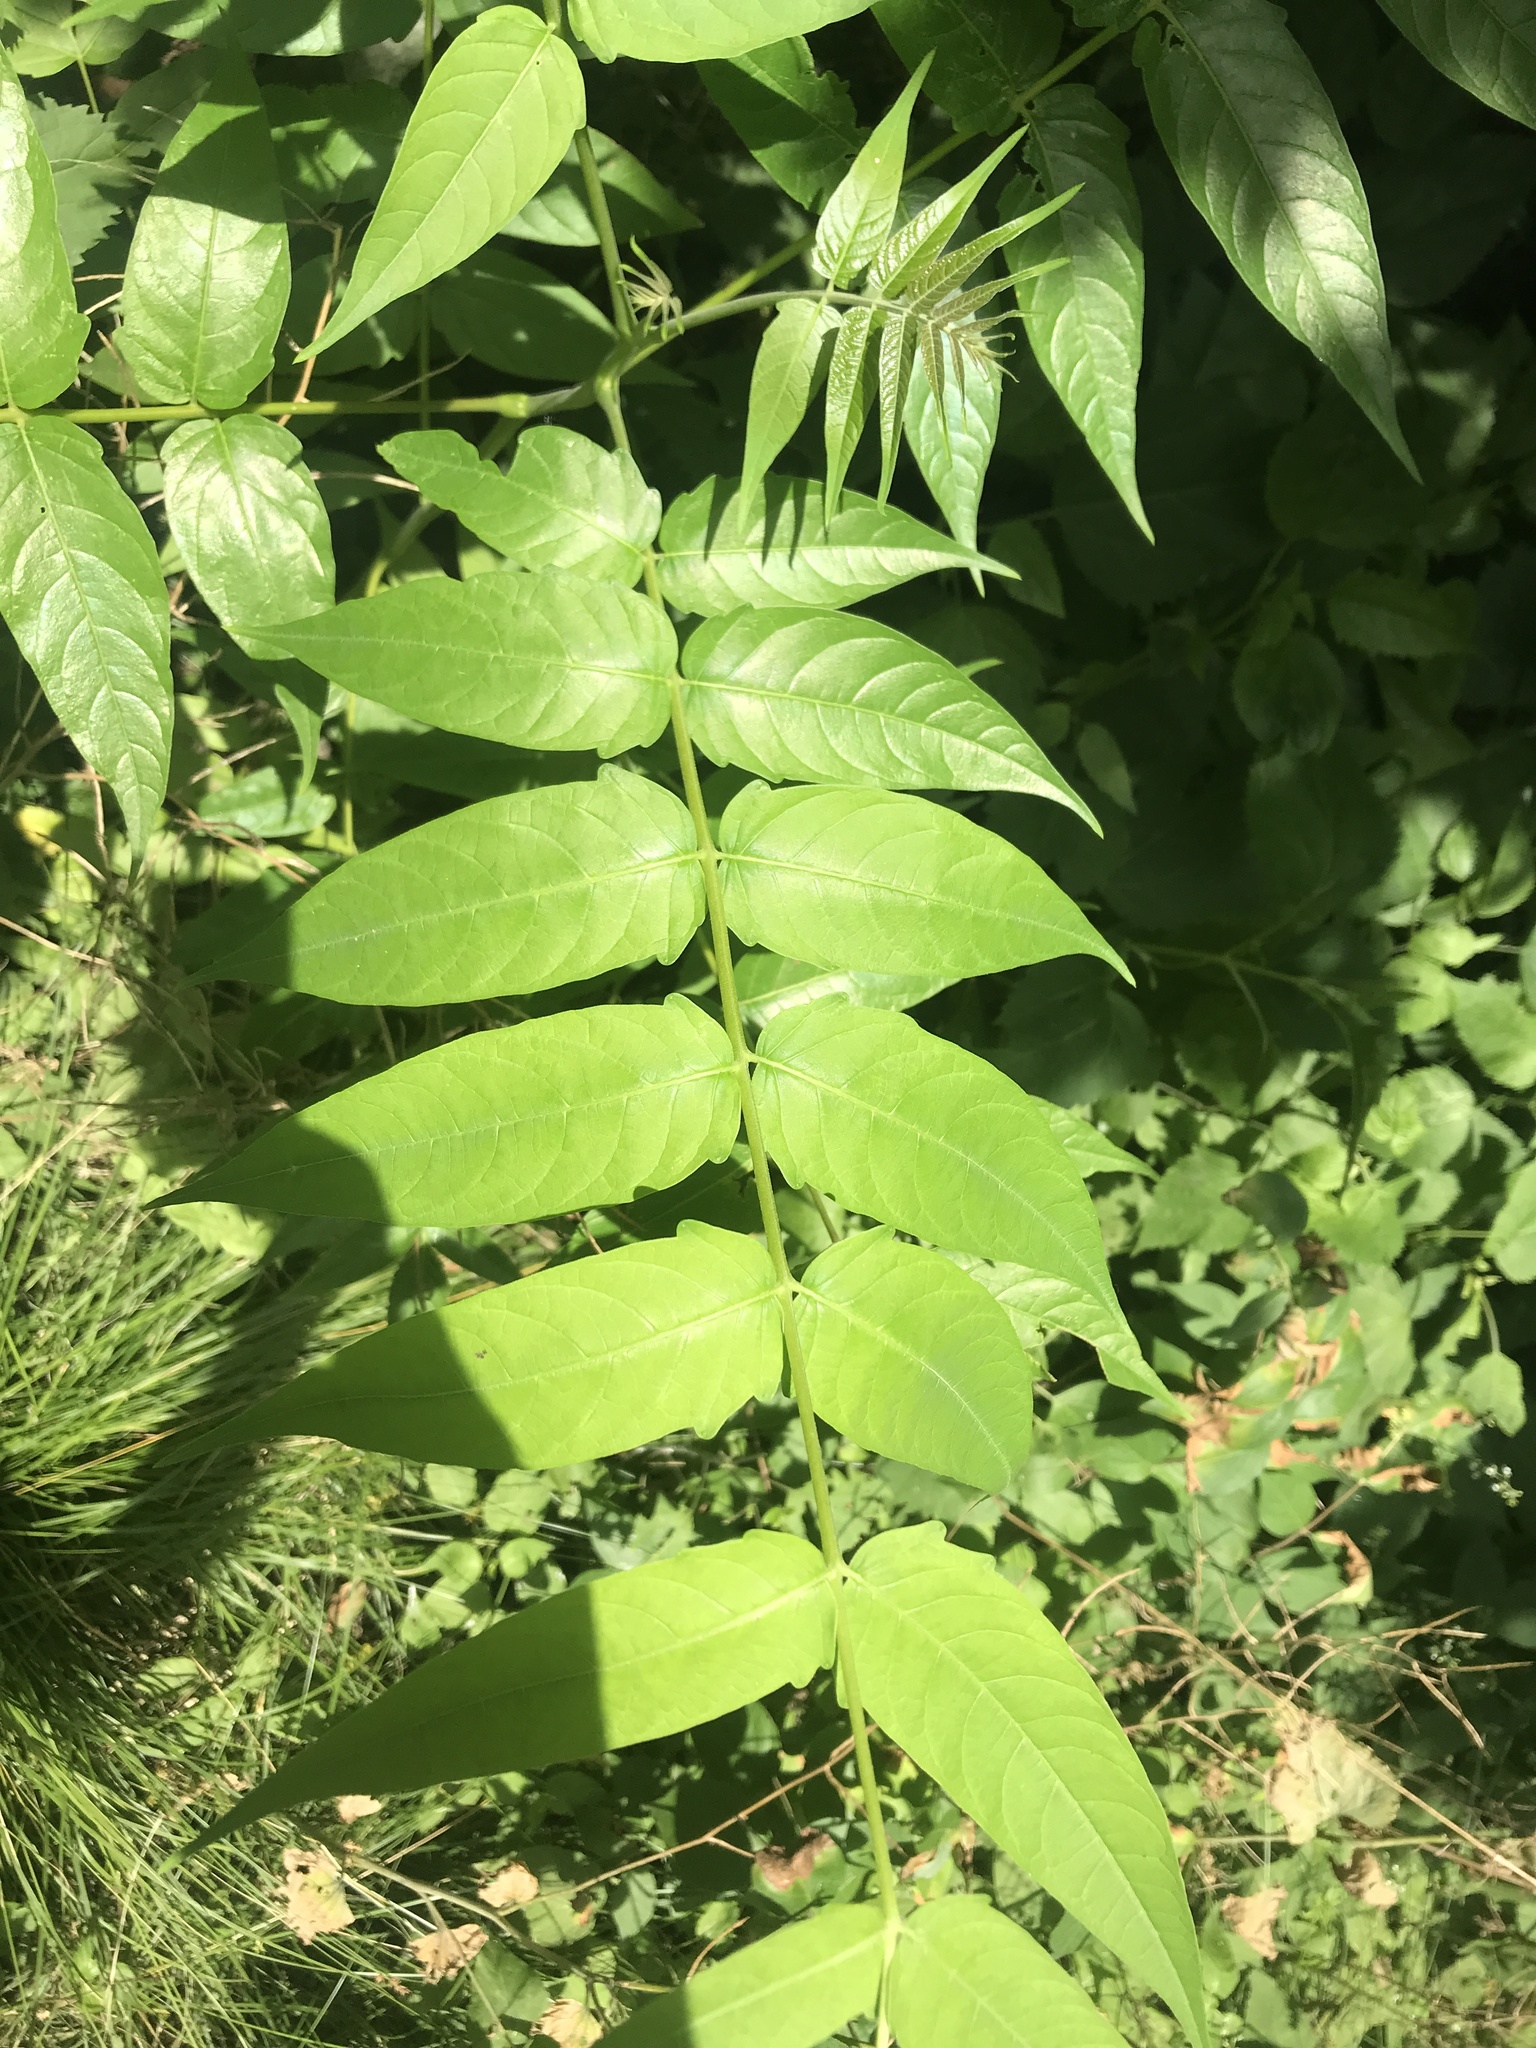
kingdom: Plantae
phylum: Tracheophyta
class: Magnoliopsida
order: Sapindales
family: Simaroubaceae
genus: Ailanthus
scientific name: Ailanthus altissima
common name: Tree-of-heaven
